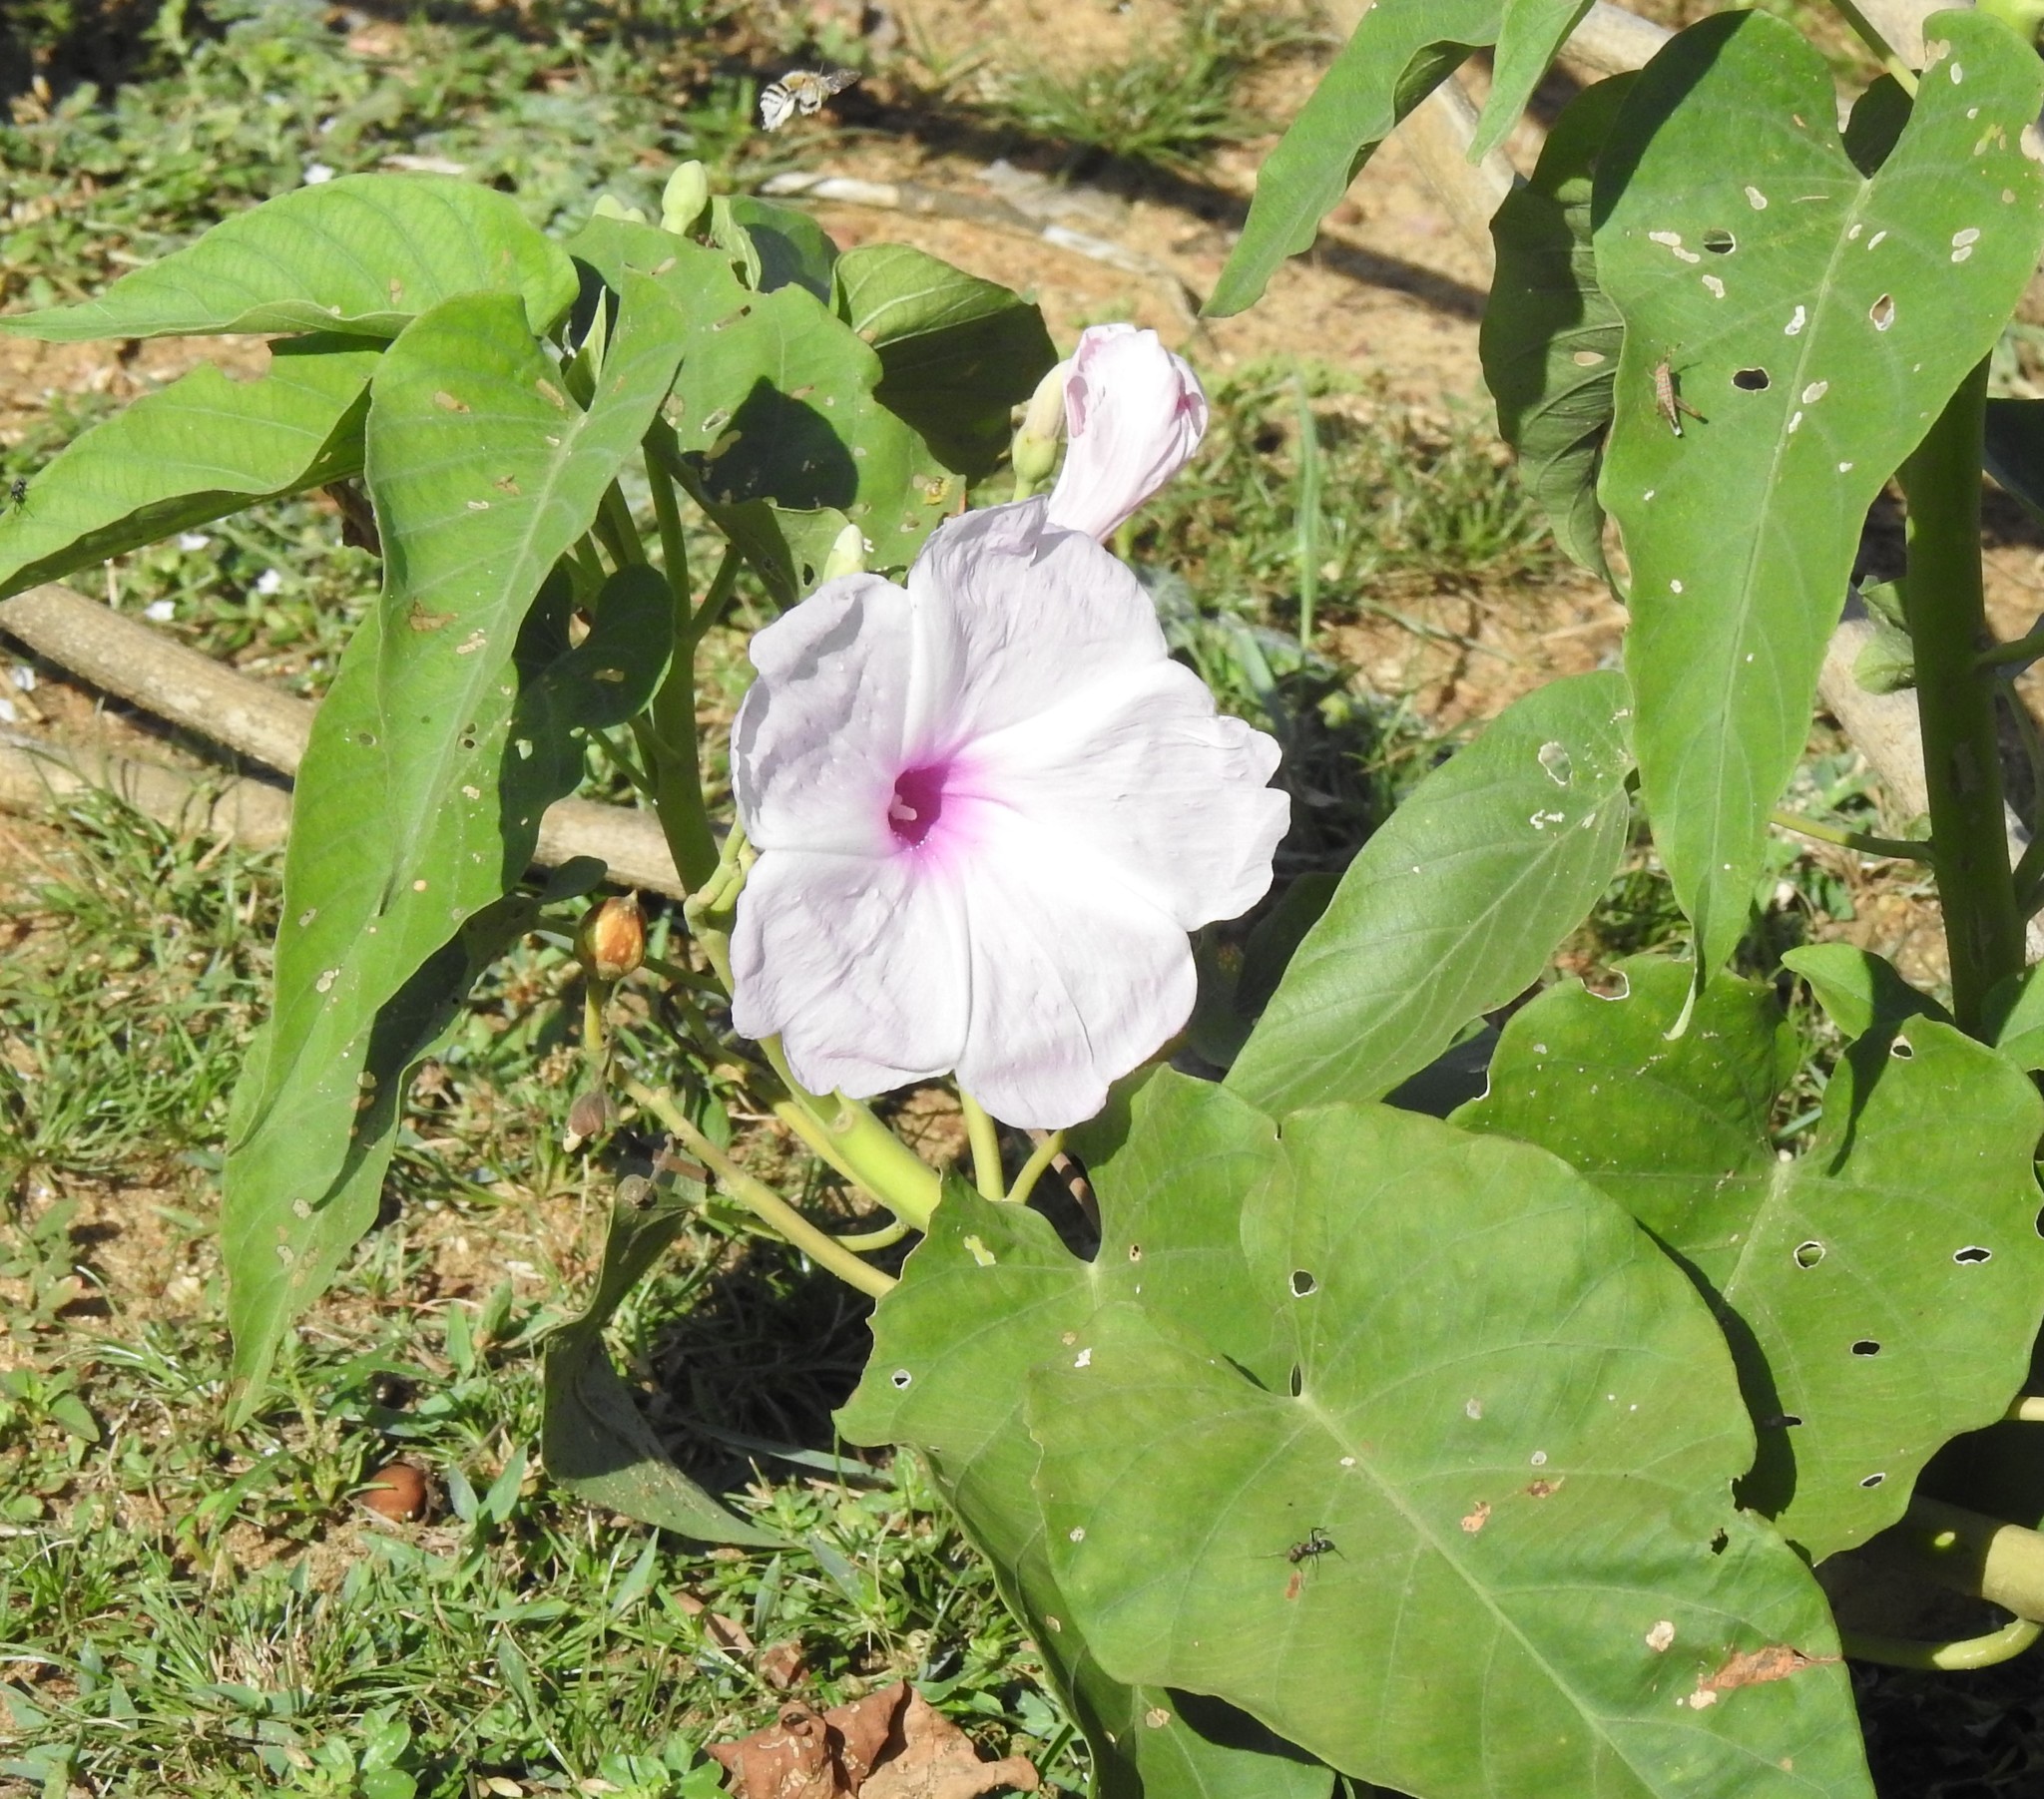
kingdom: Plantae
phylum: Tracheophyta
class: Magnoliopsida
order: Solanales
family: Convolvulaceae
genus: Ipomoea
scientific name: Ipomoea carnea
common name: Morning-glory
